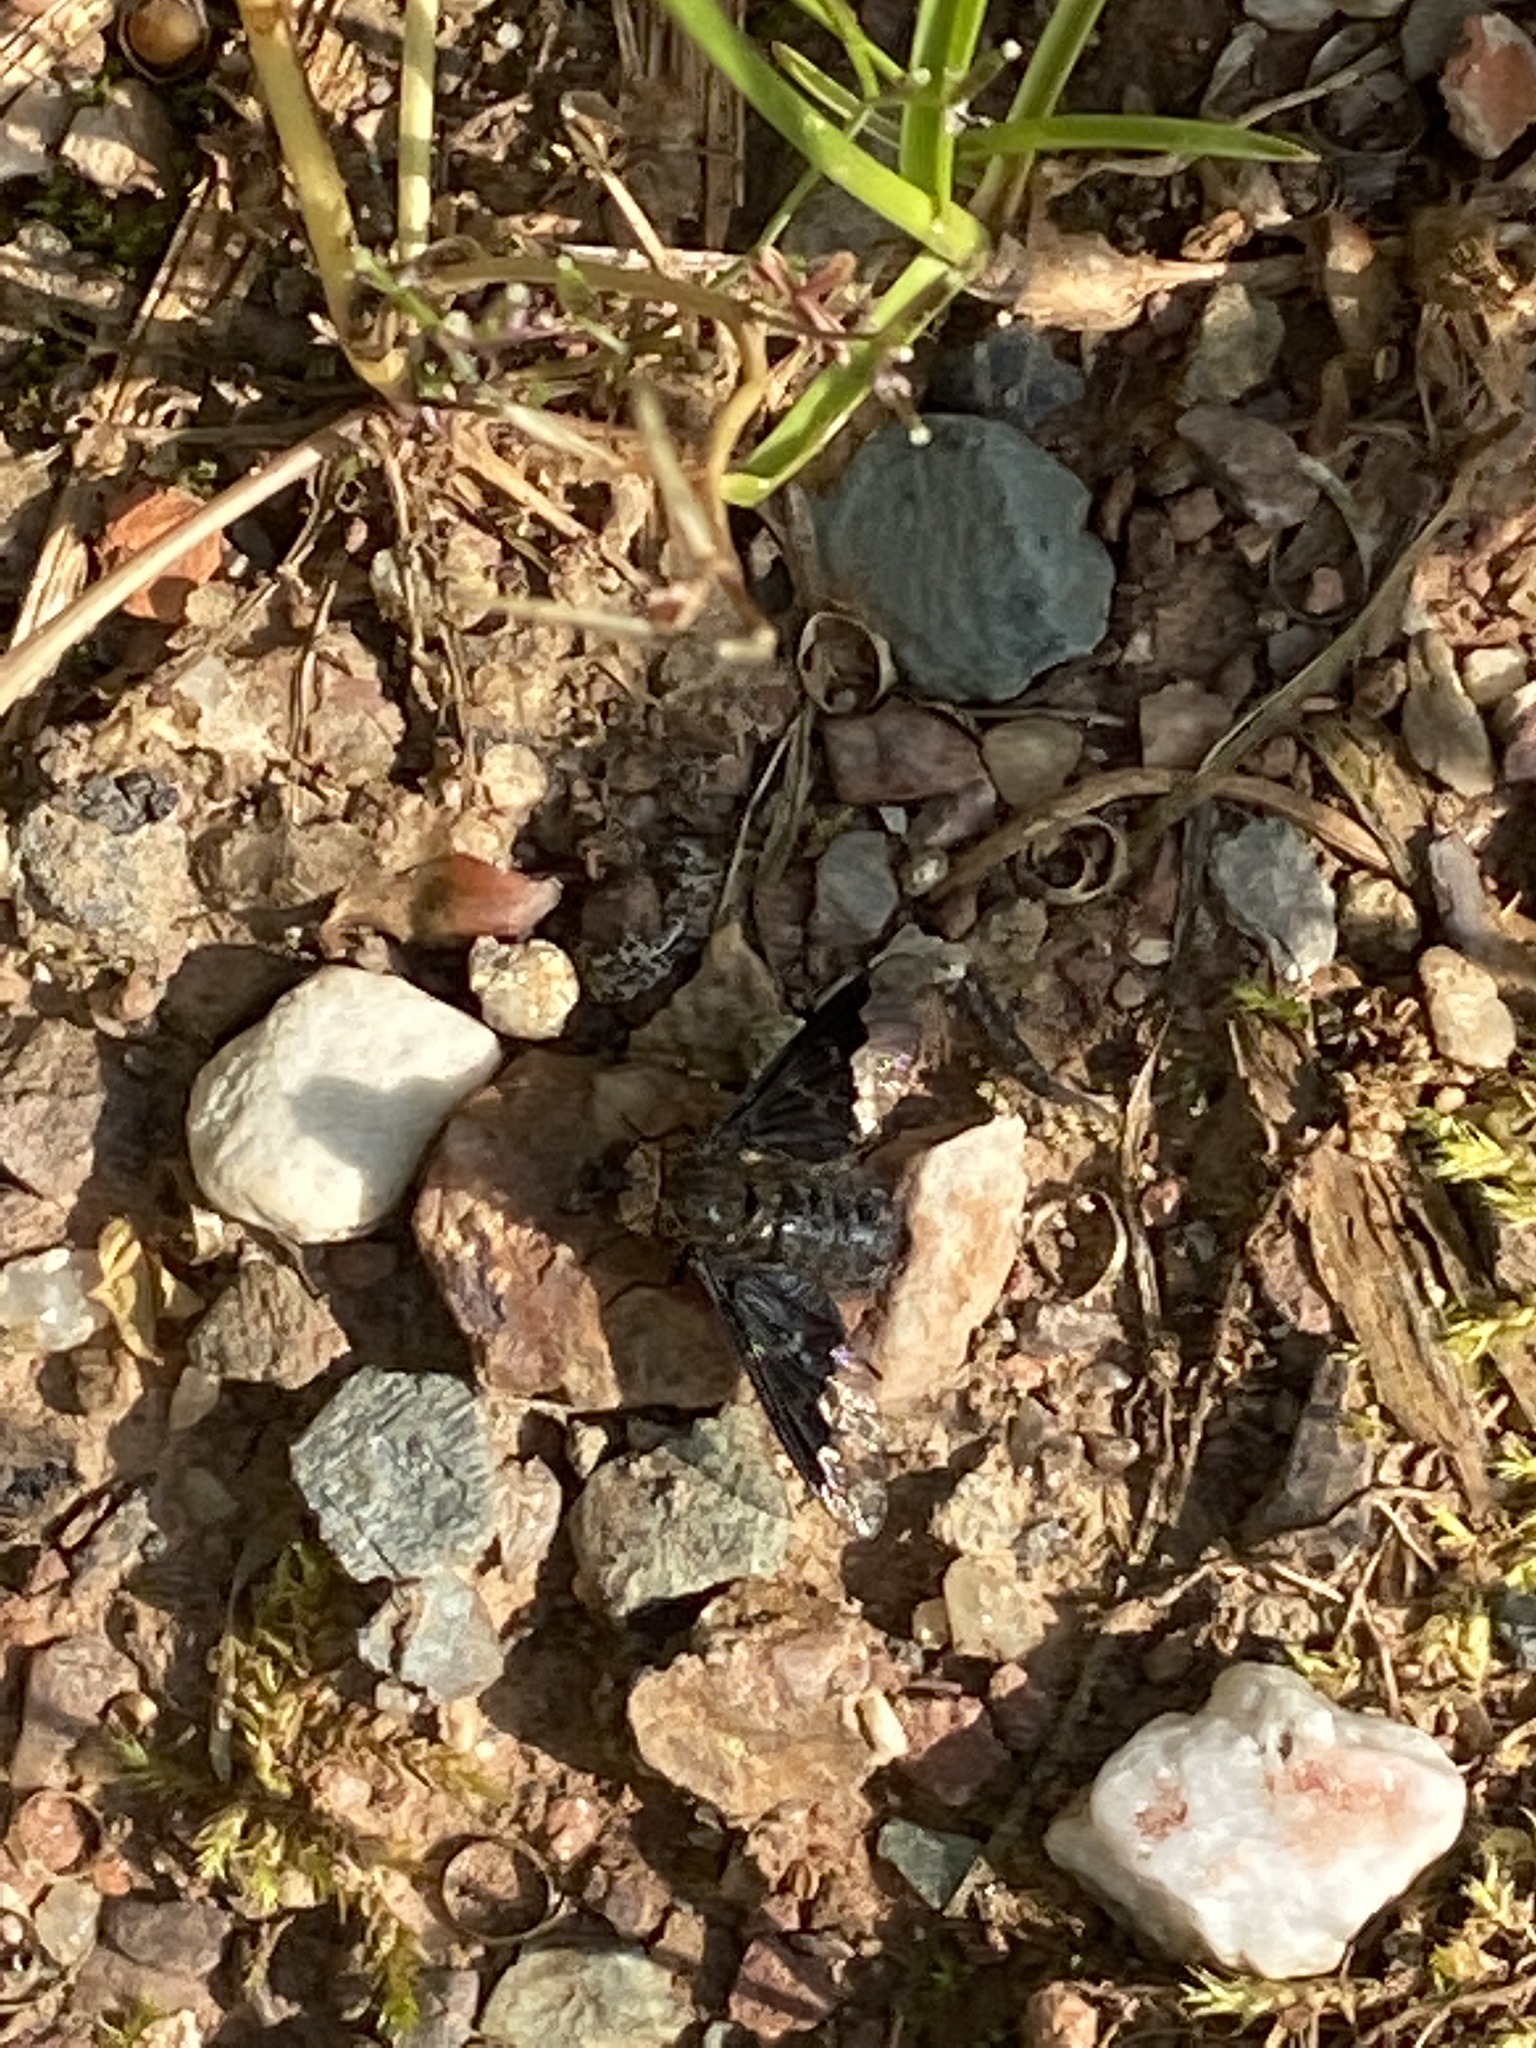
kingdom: Animalia
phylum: Arthropoda
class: Insecta
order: Diptera
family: Bombyliidae
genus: Hemipenthes
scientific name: Hemipenthes morio
